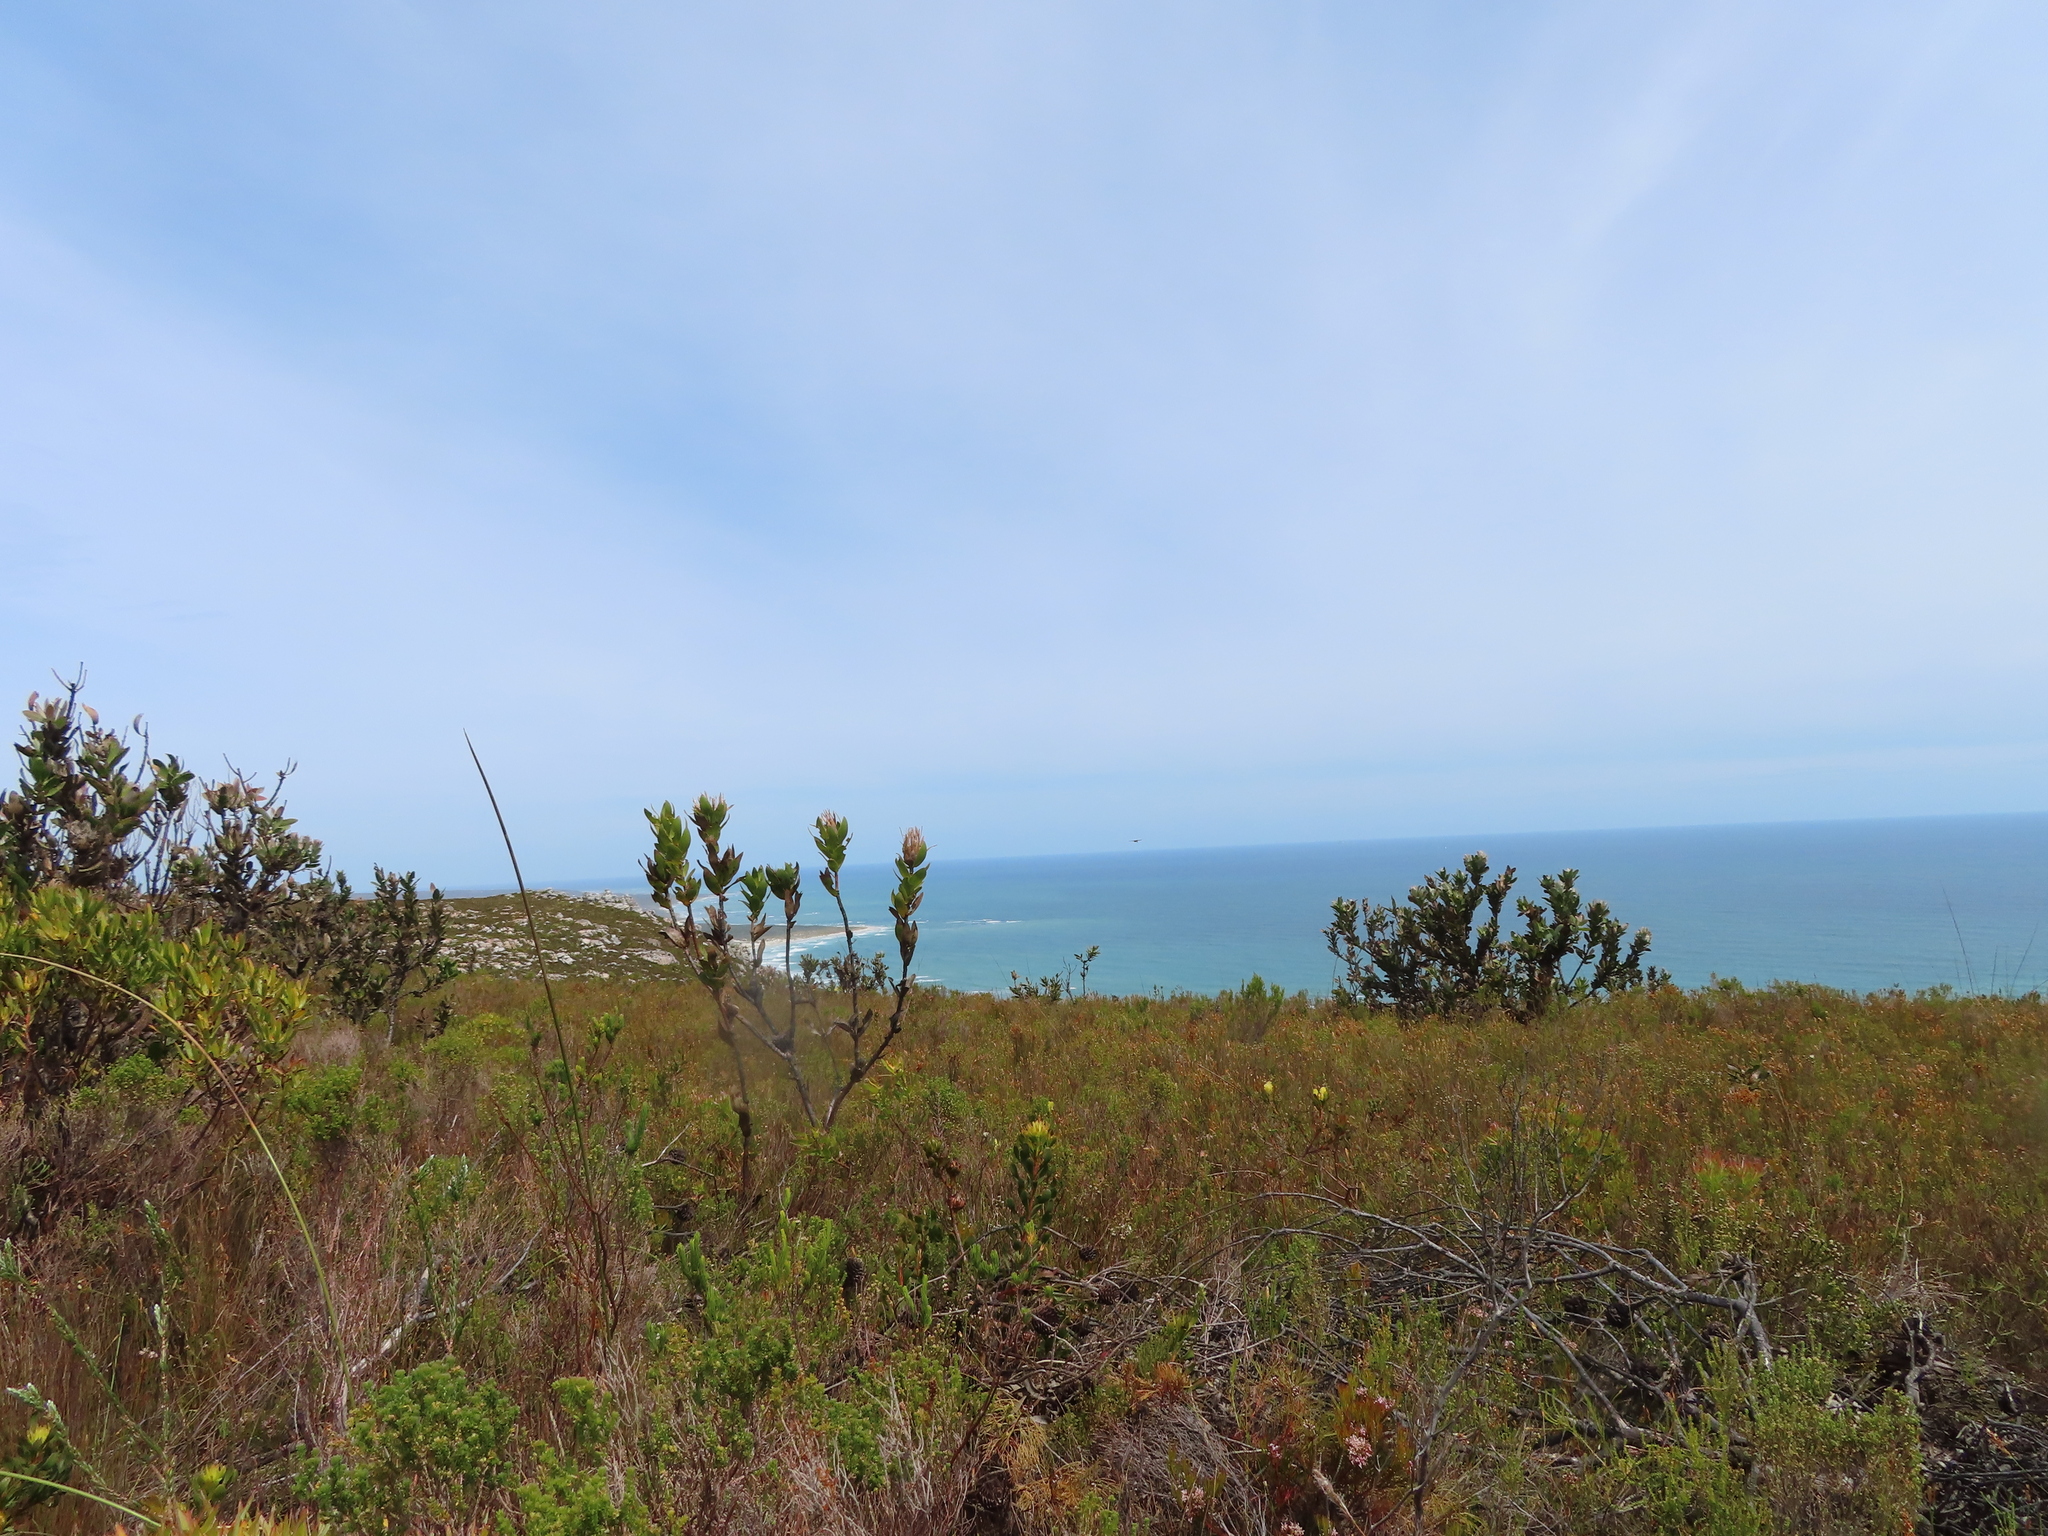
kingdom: Plantae
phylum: Tracheophyta
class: Magnoliopsida
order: Proteales
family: Proteaceae
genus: Mimetes
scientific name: Mimetes saxatilis
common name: Limestone pagoda
